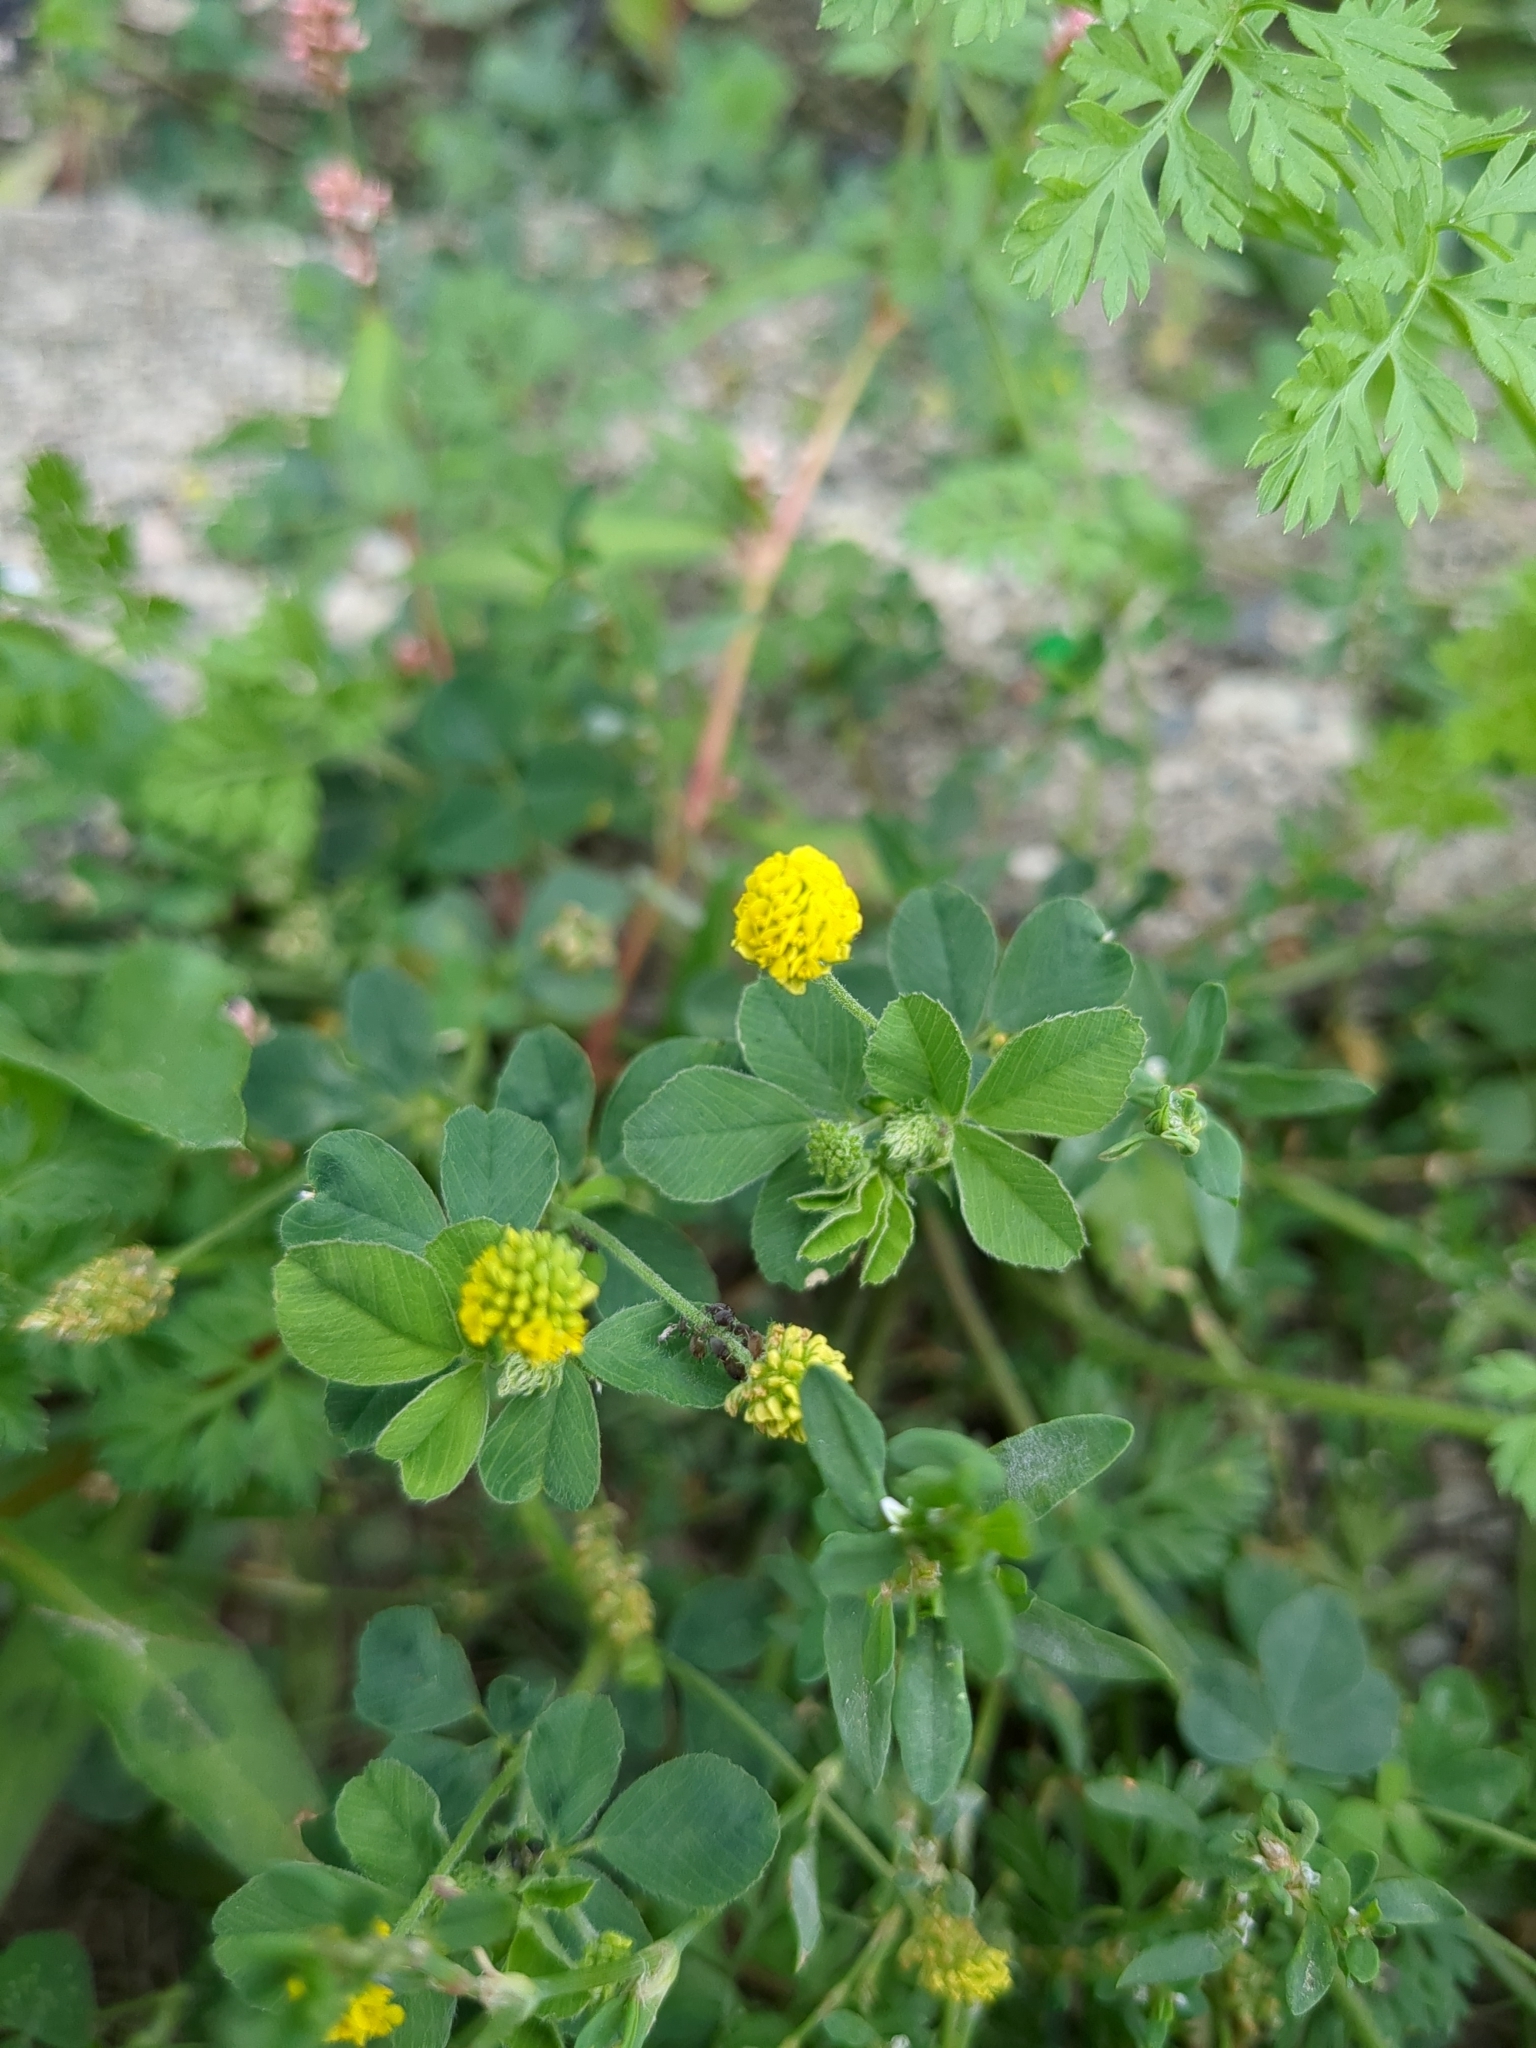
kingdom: Plantae
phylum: Tracheophyta
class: Magnoliopsida
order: Fabales
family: Fabaceae
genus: Medicago
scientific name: Medicago lupulina
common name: Black medick
